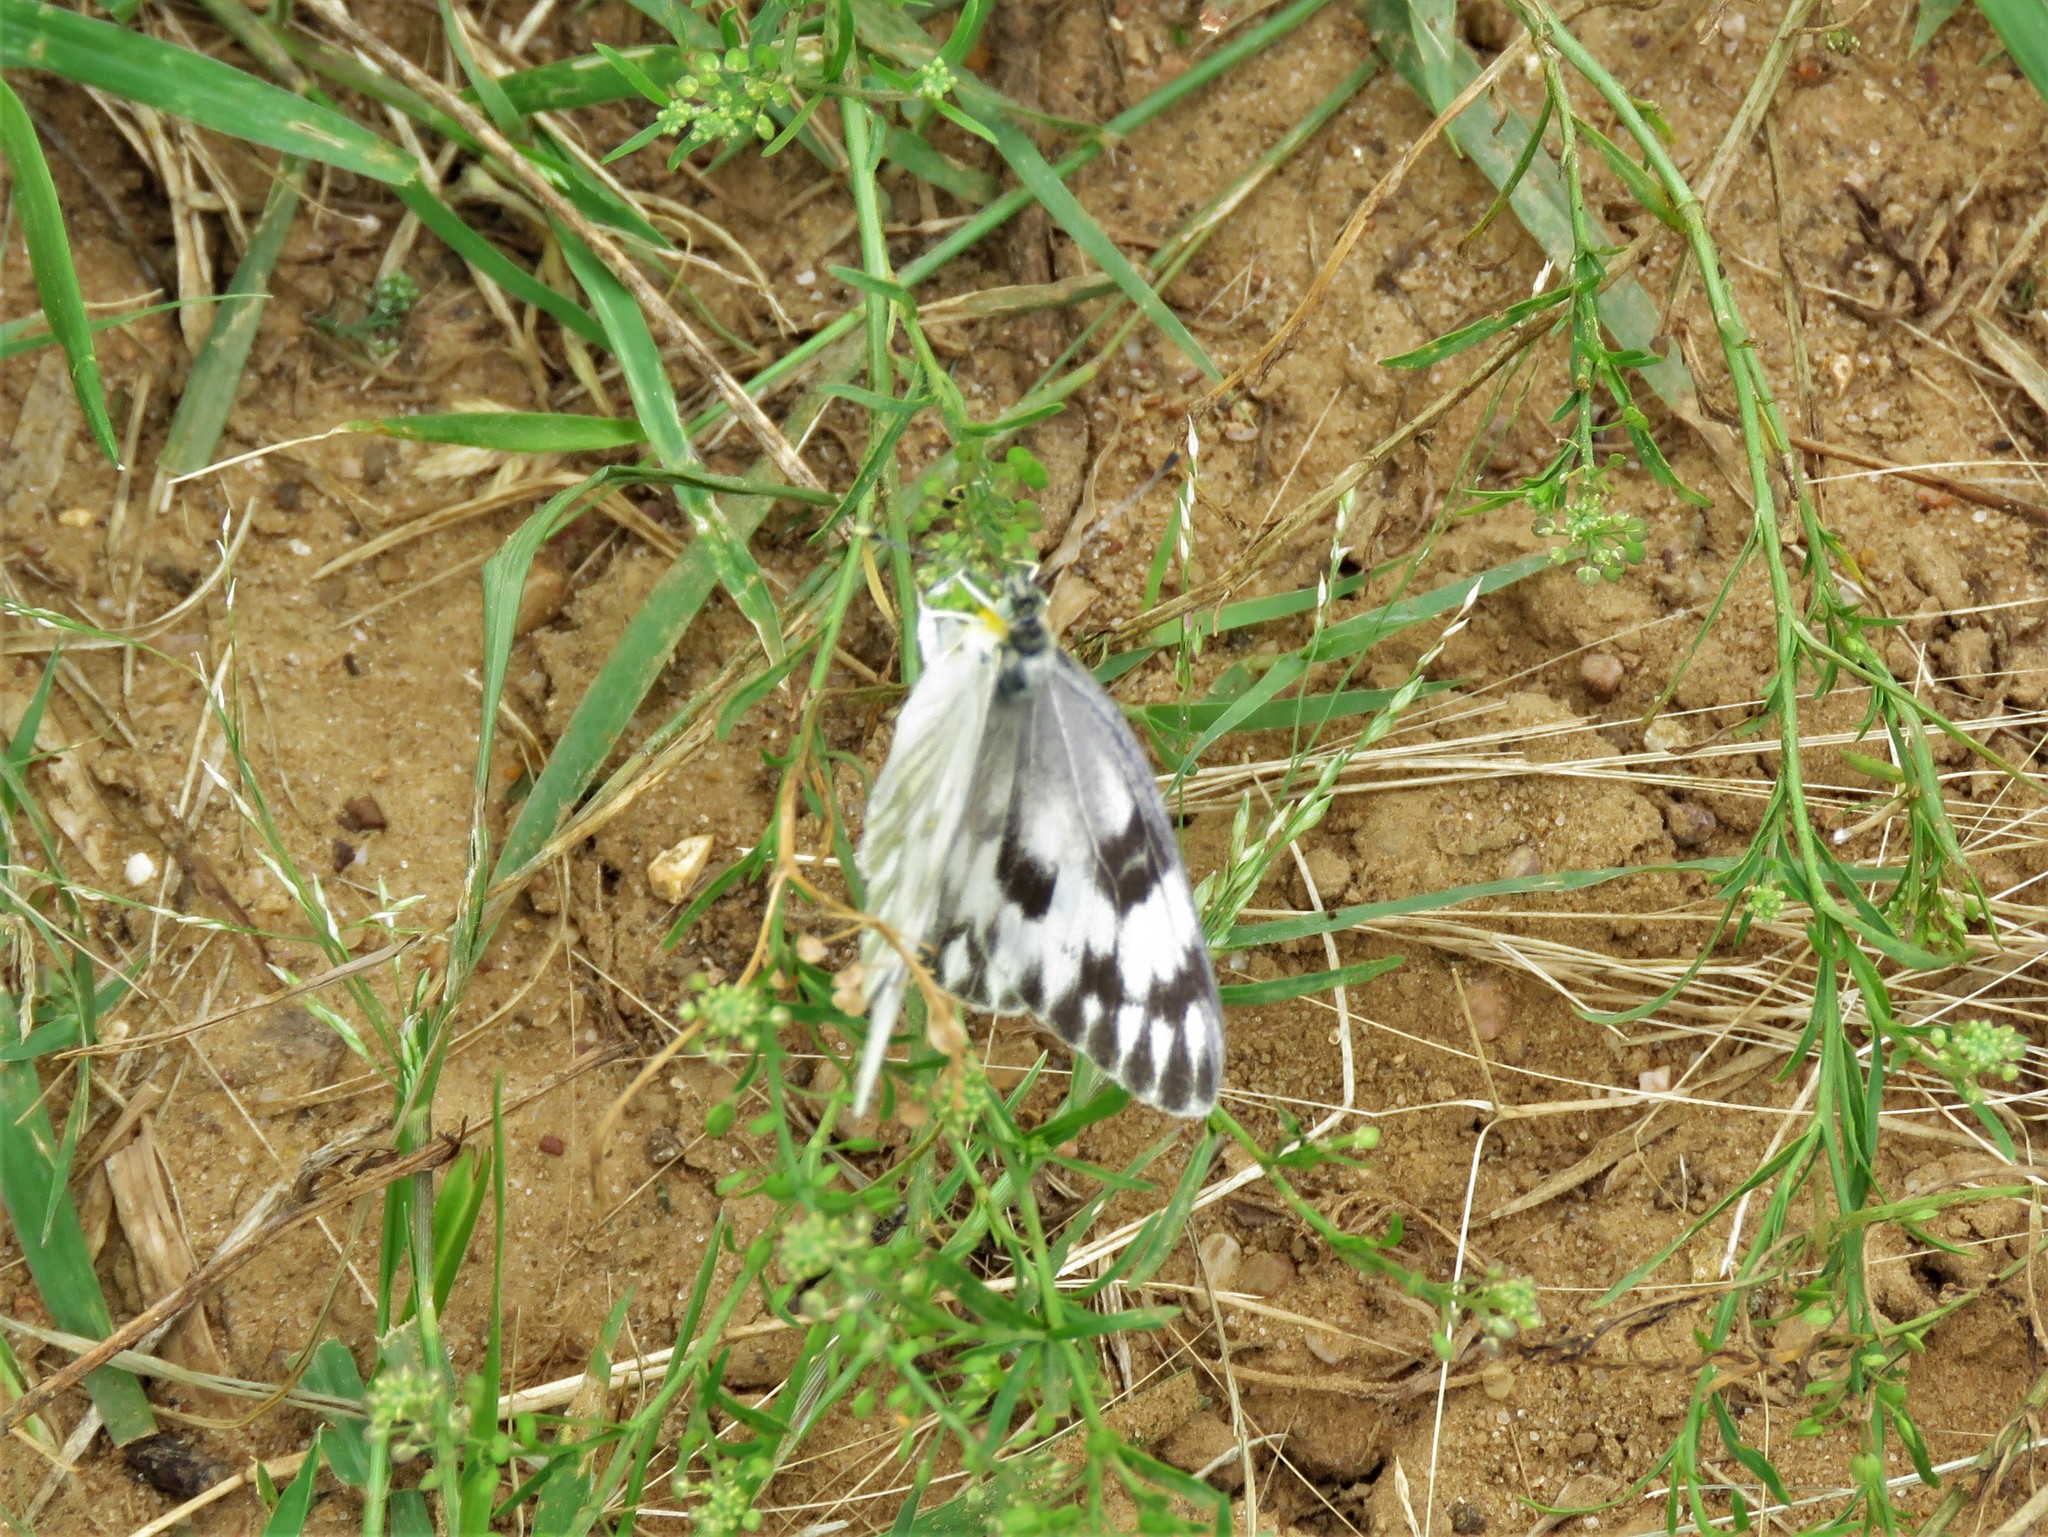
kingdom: Animalia
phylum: Arthropoda
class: Insecta
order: Lepidoptera
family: Pieridae
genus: Pontia
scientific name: Pontia protodice
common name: Checkered white
